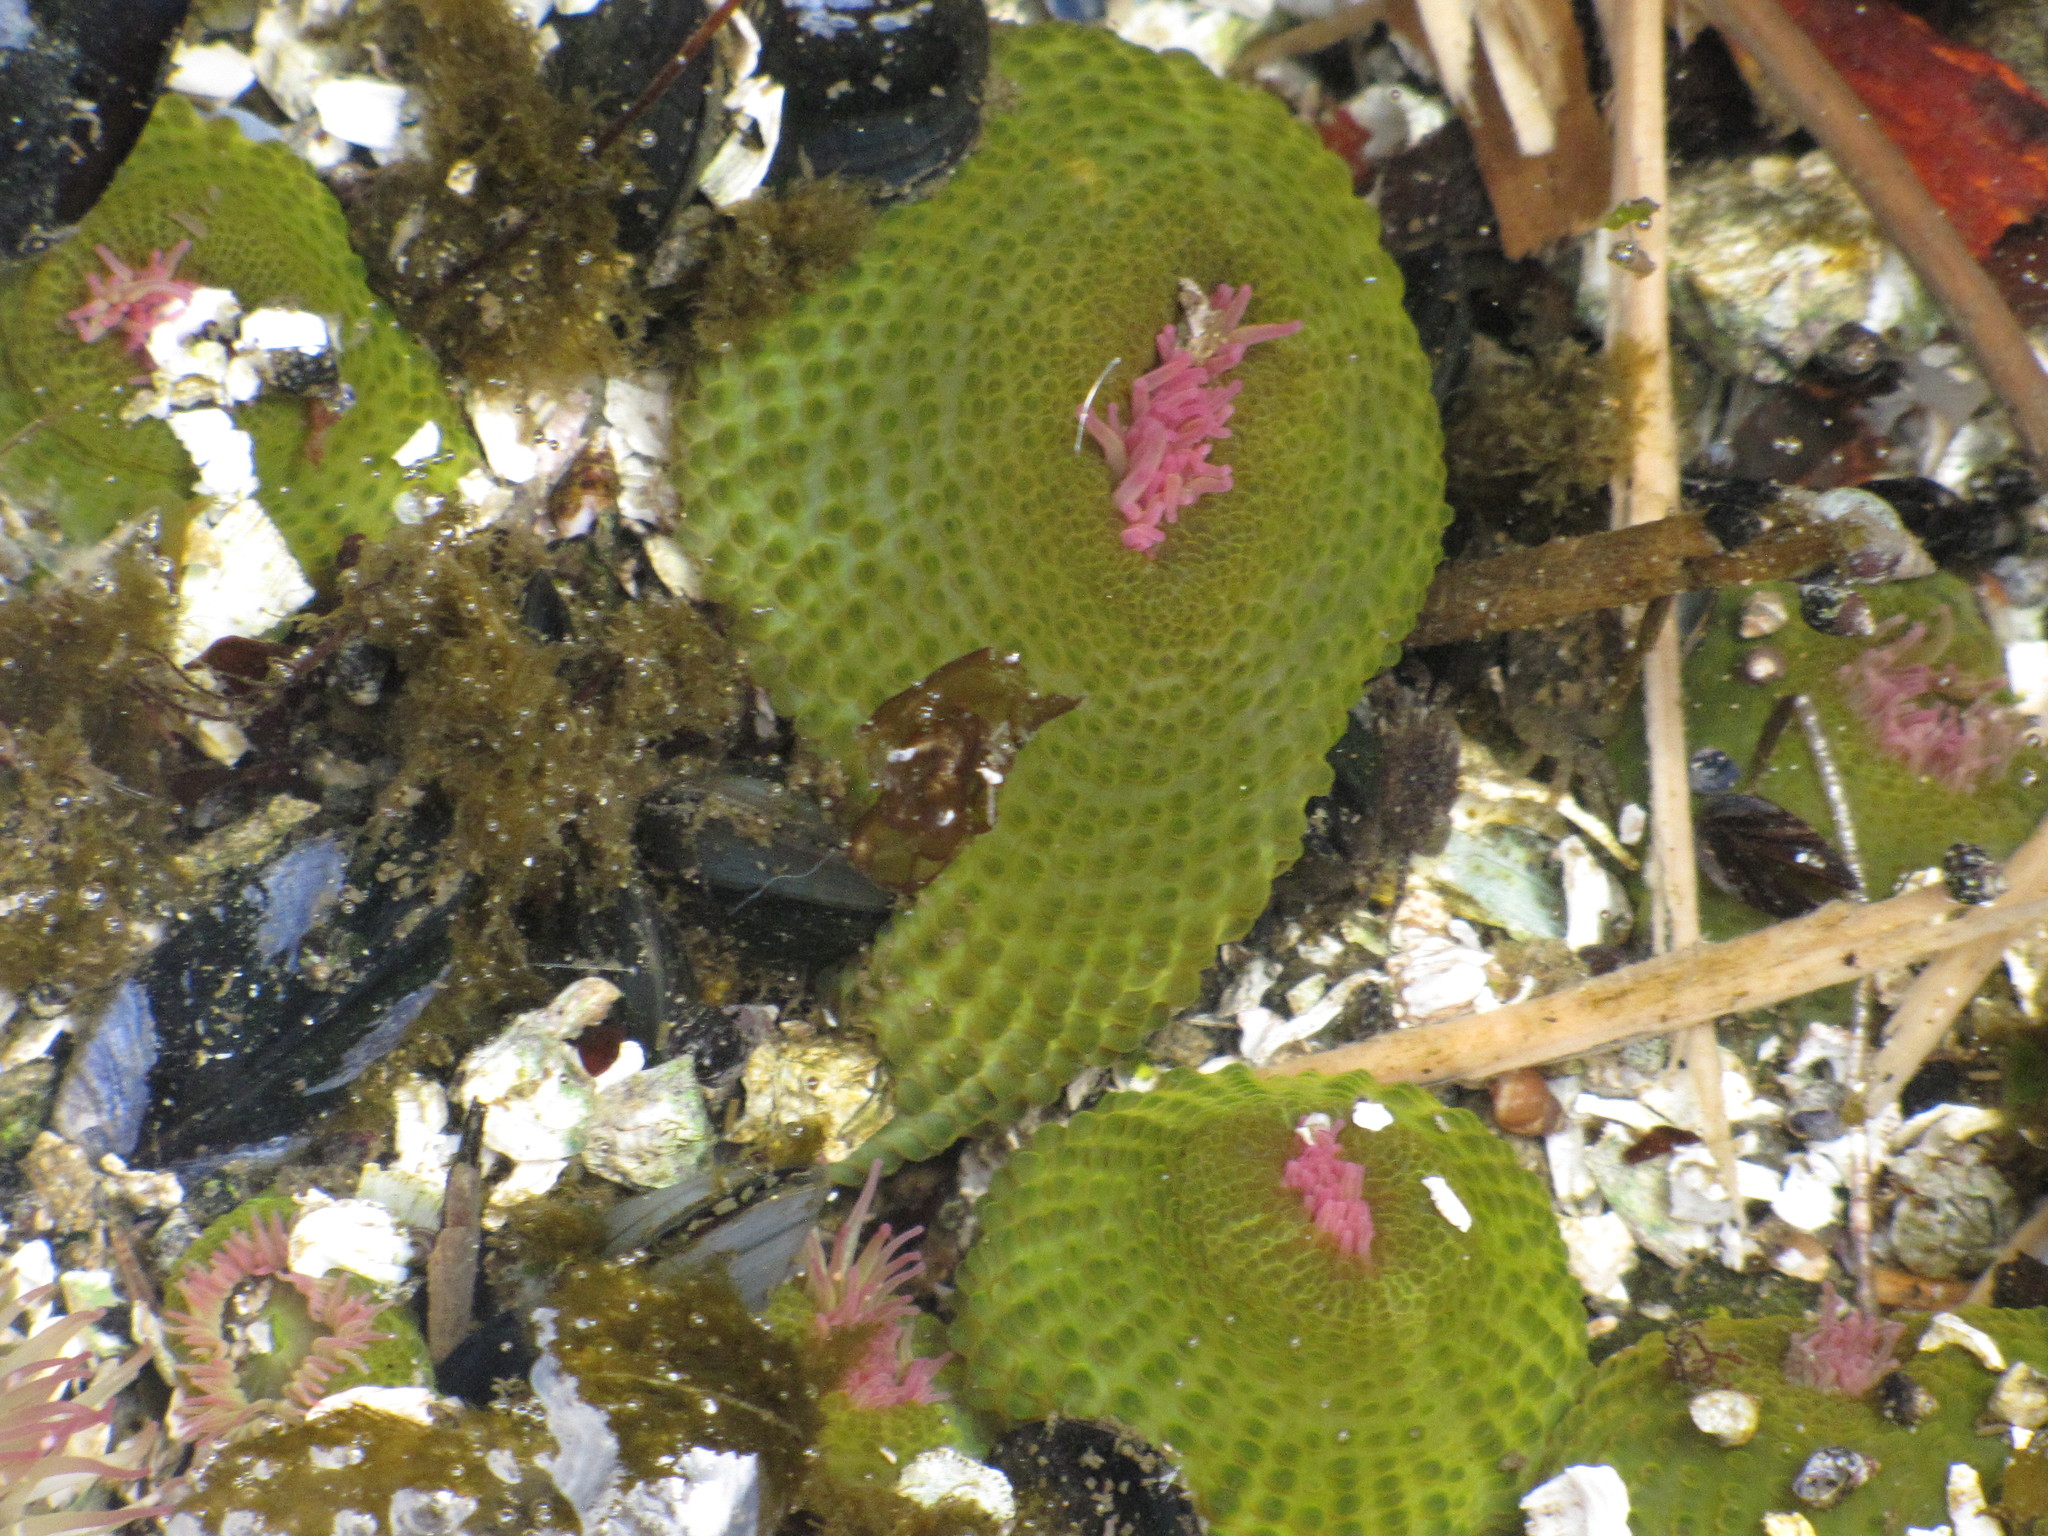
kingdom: Animalia
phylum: Cnidaria
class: Anthozoa
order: Actiniaria
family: Actiniidae
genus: Anthopleura
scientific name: Anthopleura elegantissima
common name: Clonal anemone
